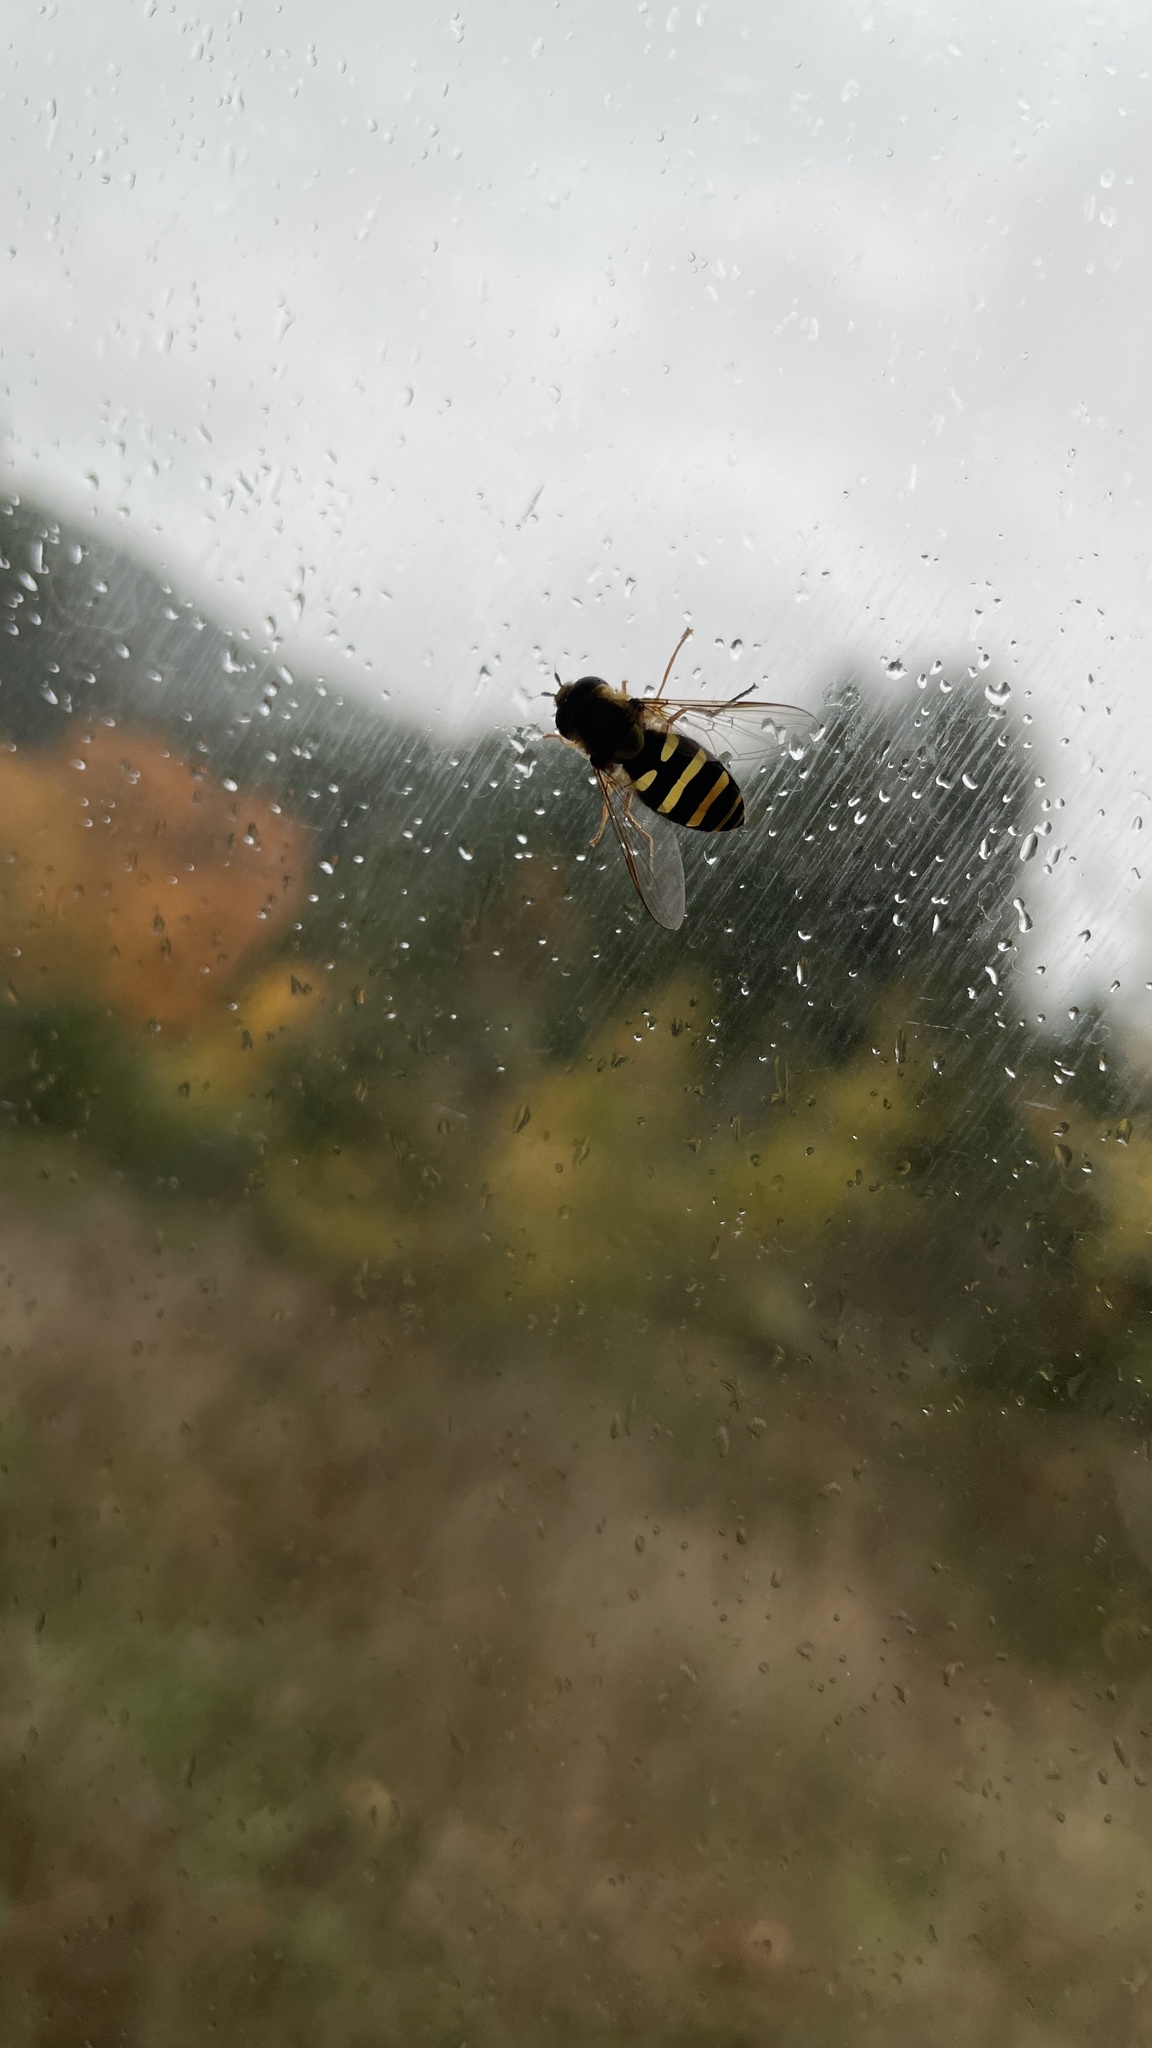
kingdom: Animalia
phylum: Arthropoda
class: Insecta
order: Diptera
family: Syrphidae
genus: Syrphus
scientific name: Syrphus opinator
